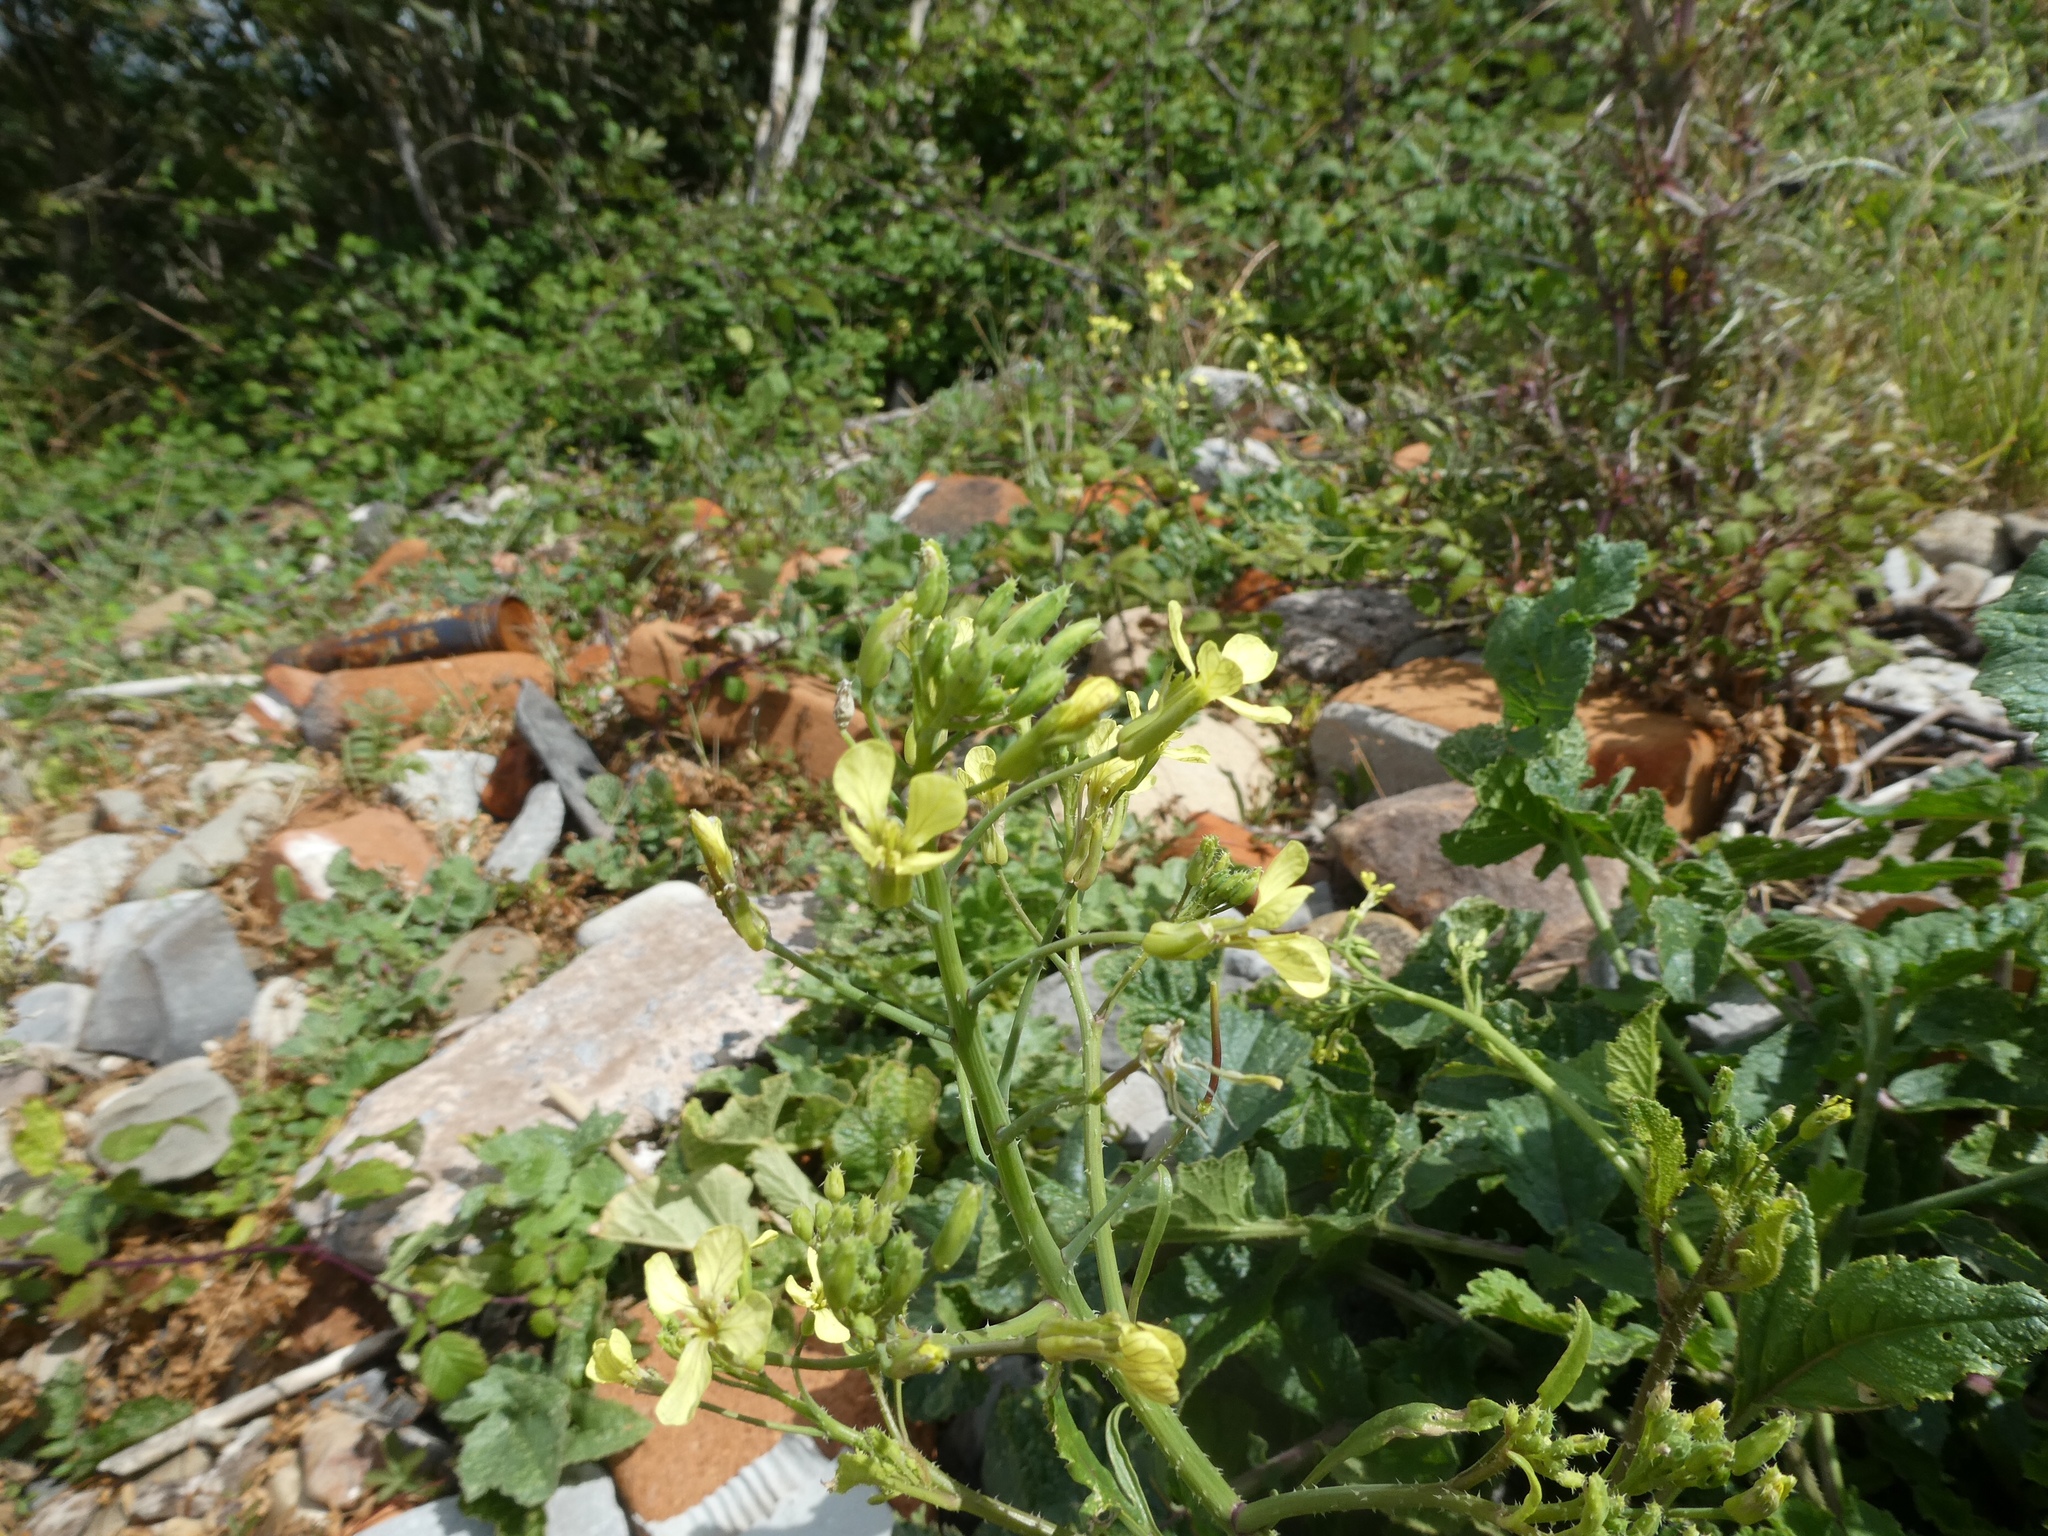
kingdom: Plantae
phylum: Tracheophyta
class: Magnoliopsida
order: Brassicales
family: Brassicaceae
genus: Raphanus
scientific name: Raphanus raphanistrum
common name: Wild radish
